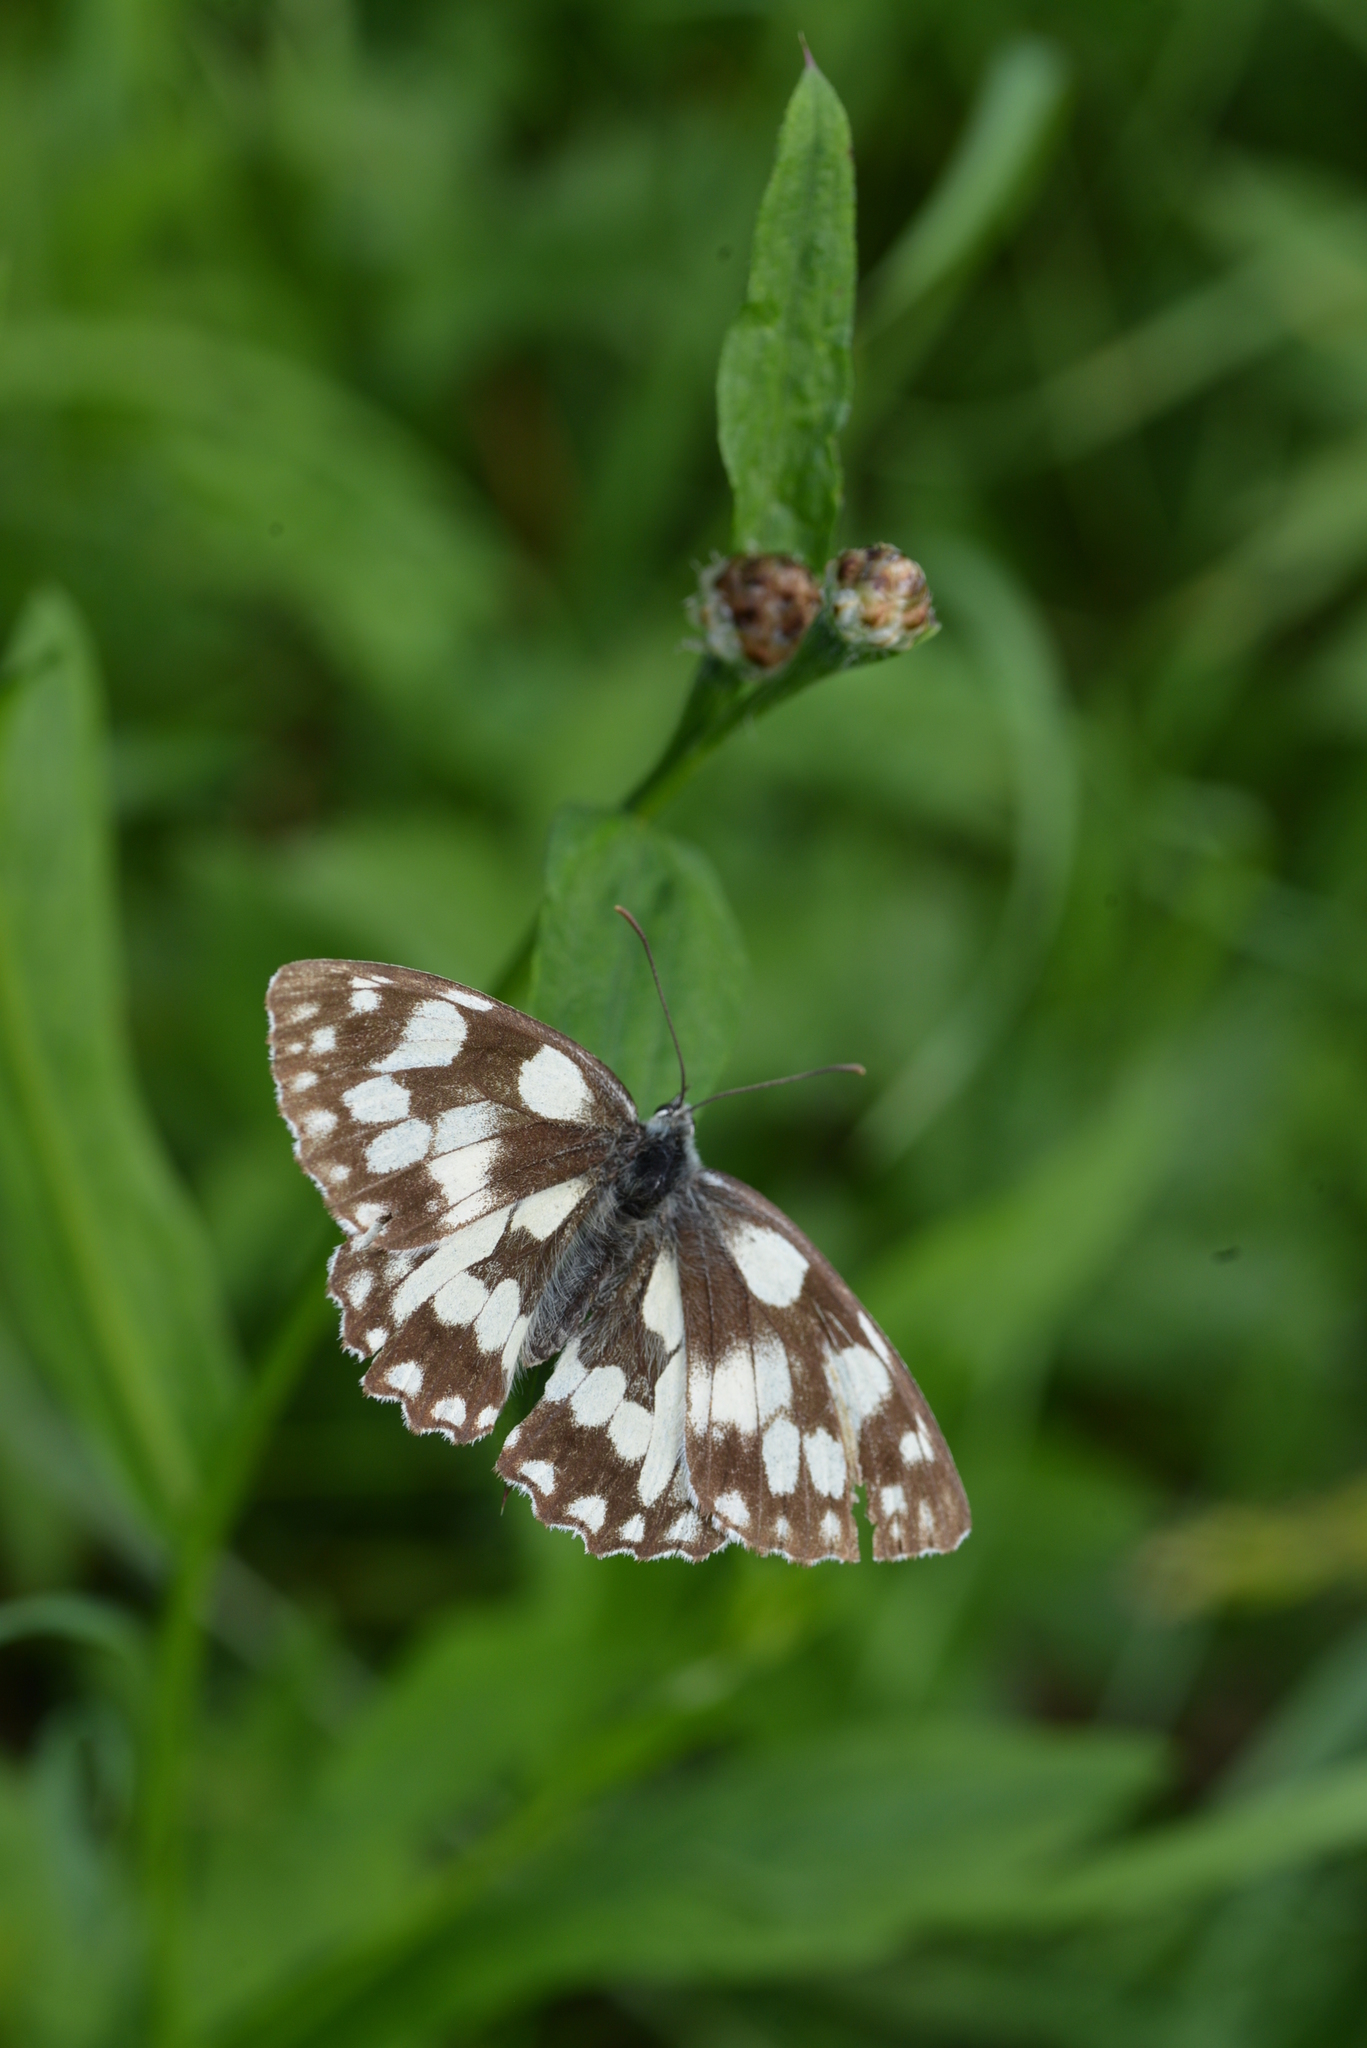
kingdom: Animalia
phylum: Arthropoda
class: Insecta
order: Lepidoptera
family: Nymphalidae
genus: Melanargia
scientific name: Melanargia galathea
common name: Marbled white
